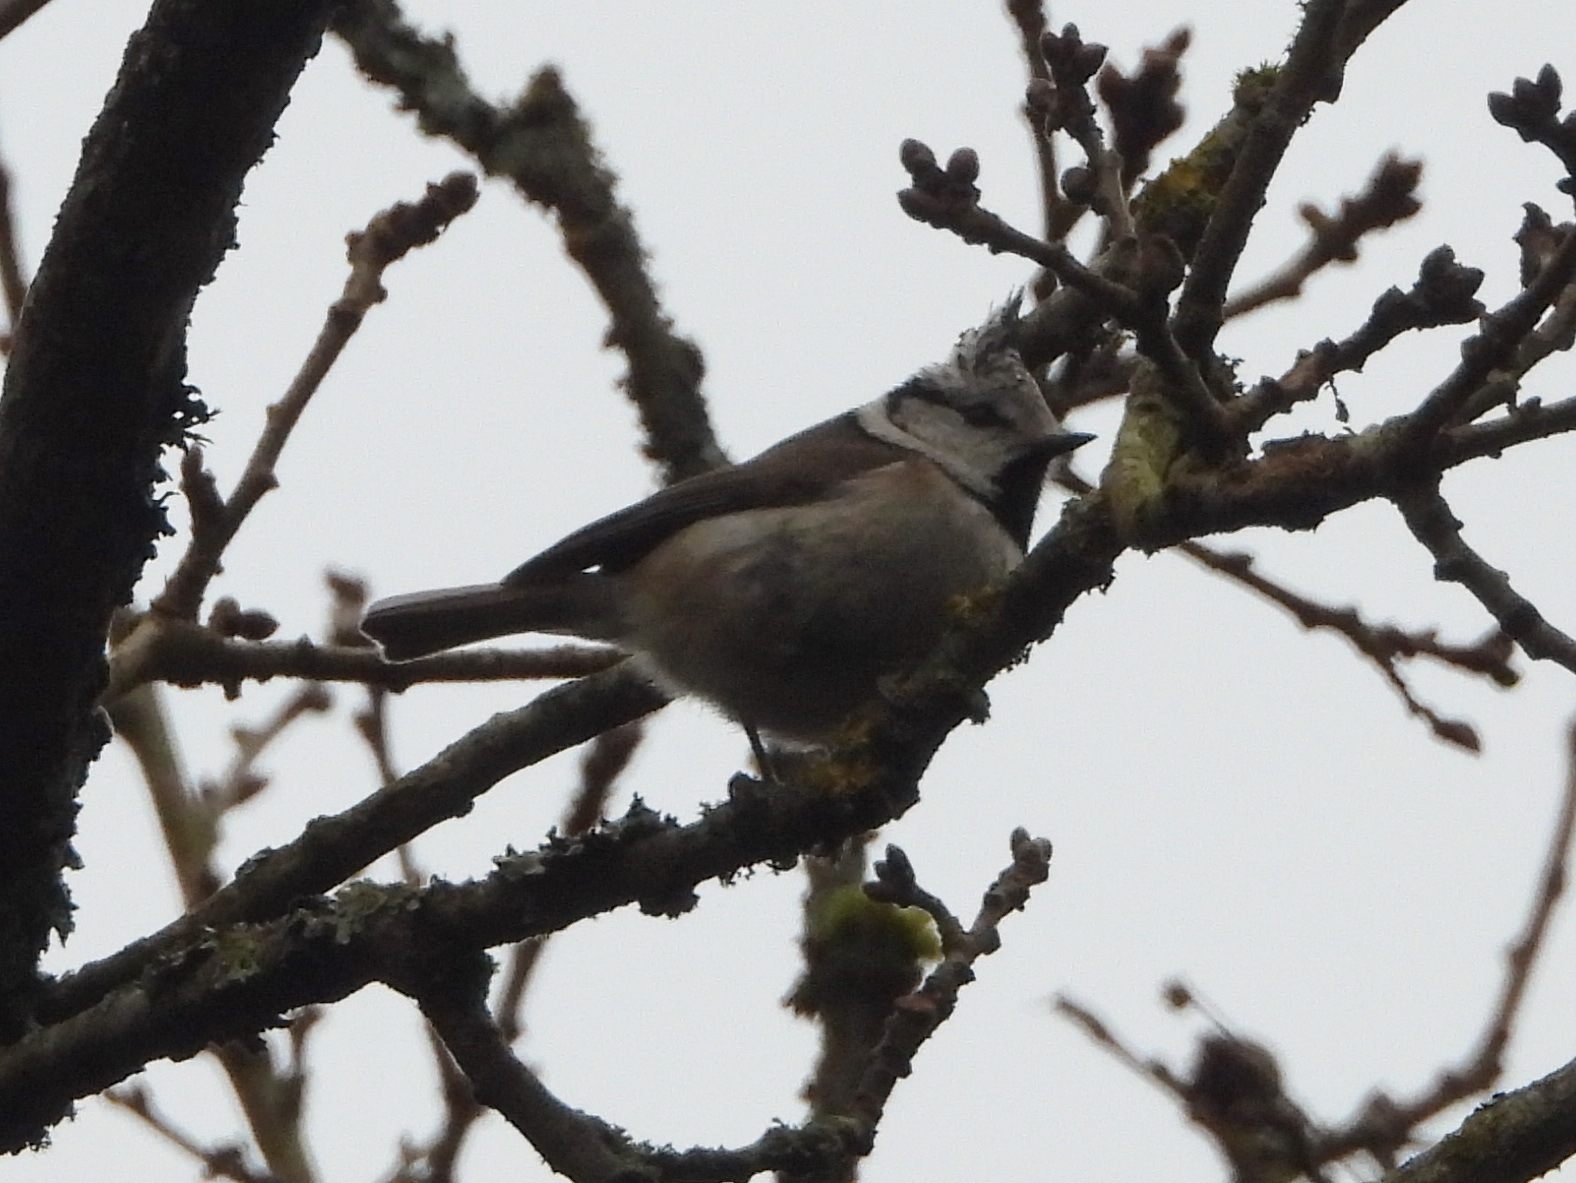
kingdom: Animalia
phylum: Chordata
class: Aves
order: Passeriformes
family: Paridae
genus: Lophophanes
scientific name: Lophophanes cristatus
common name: European crested tit
